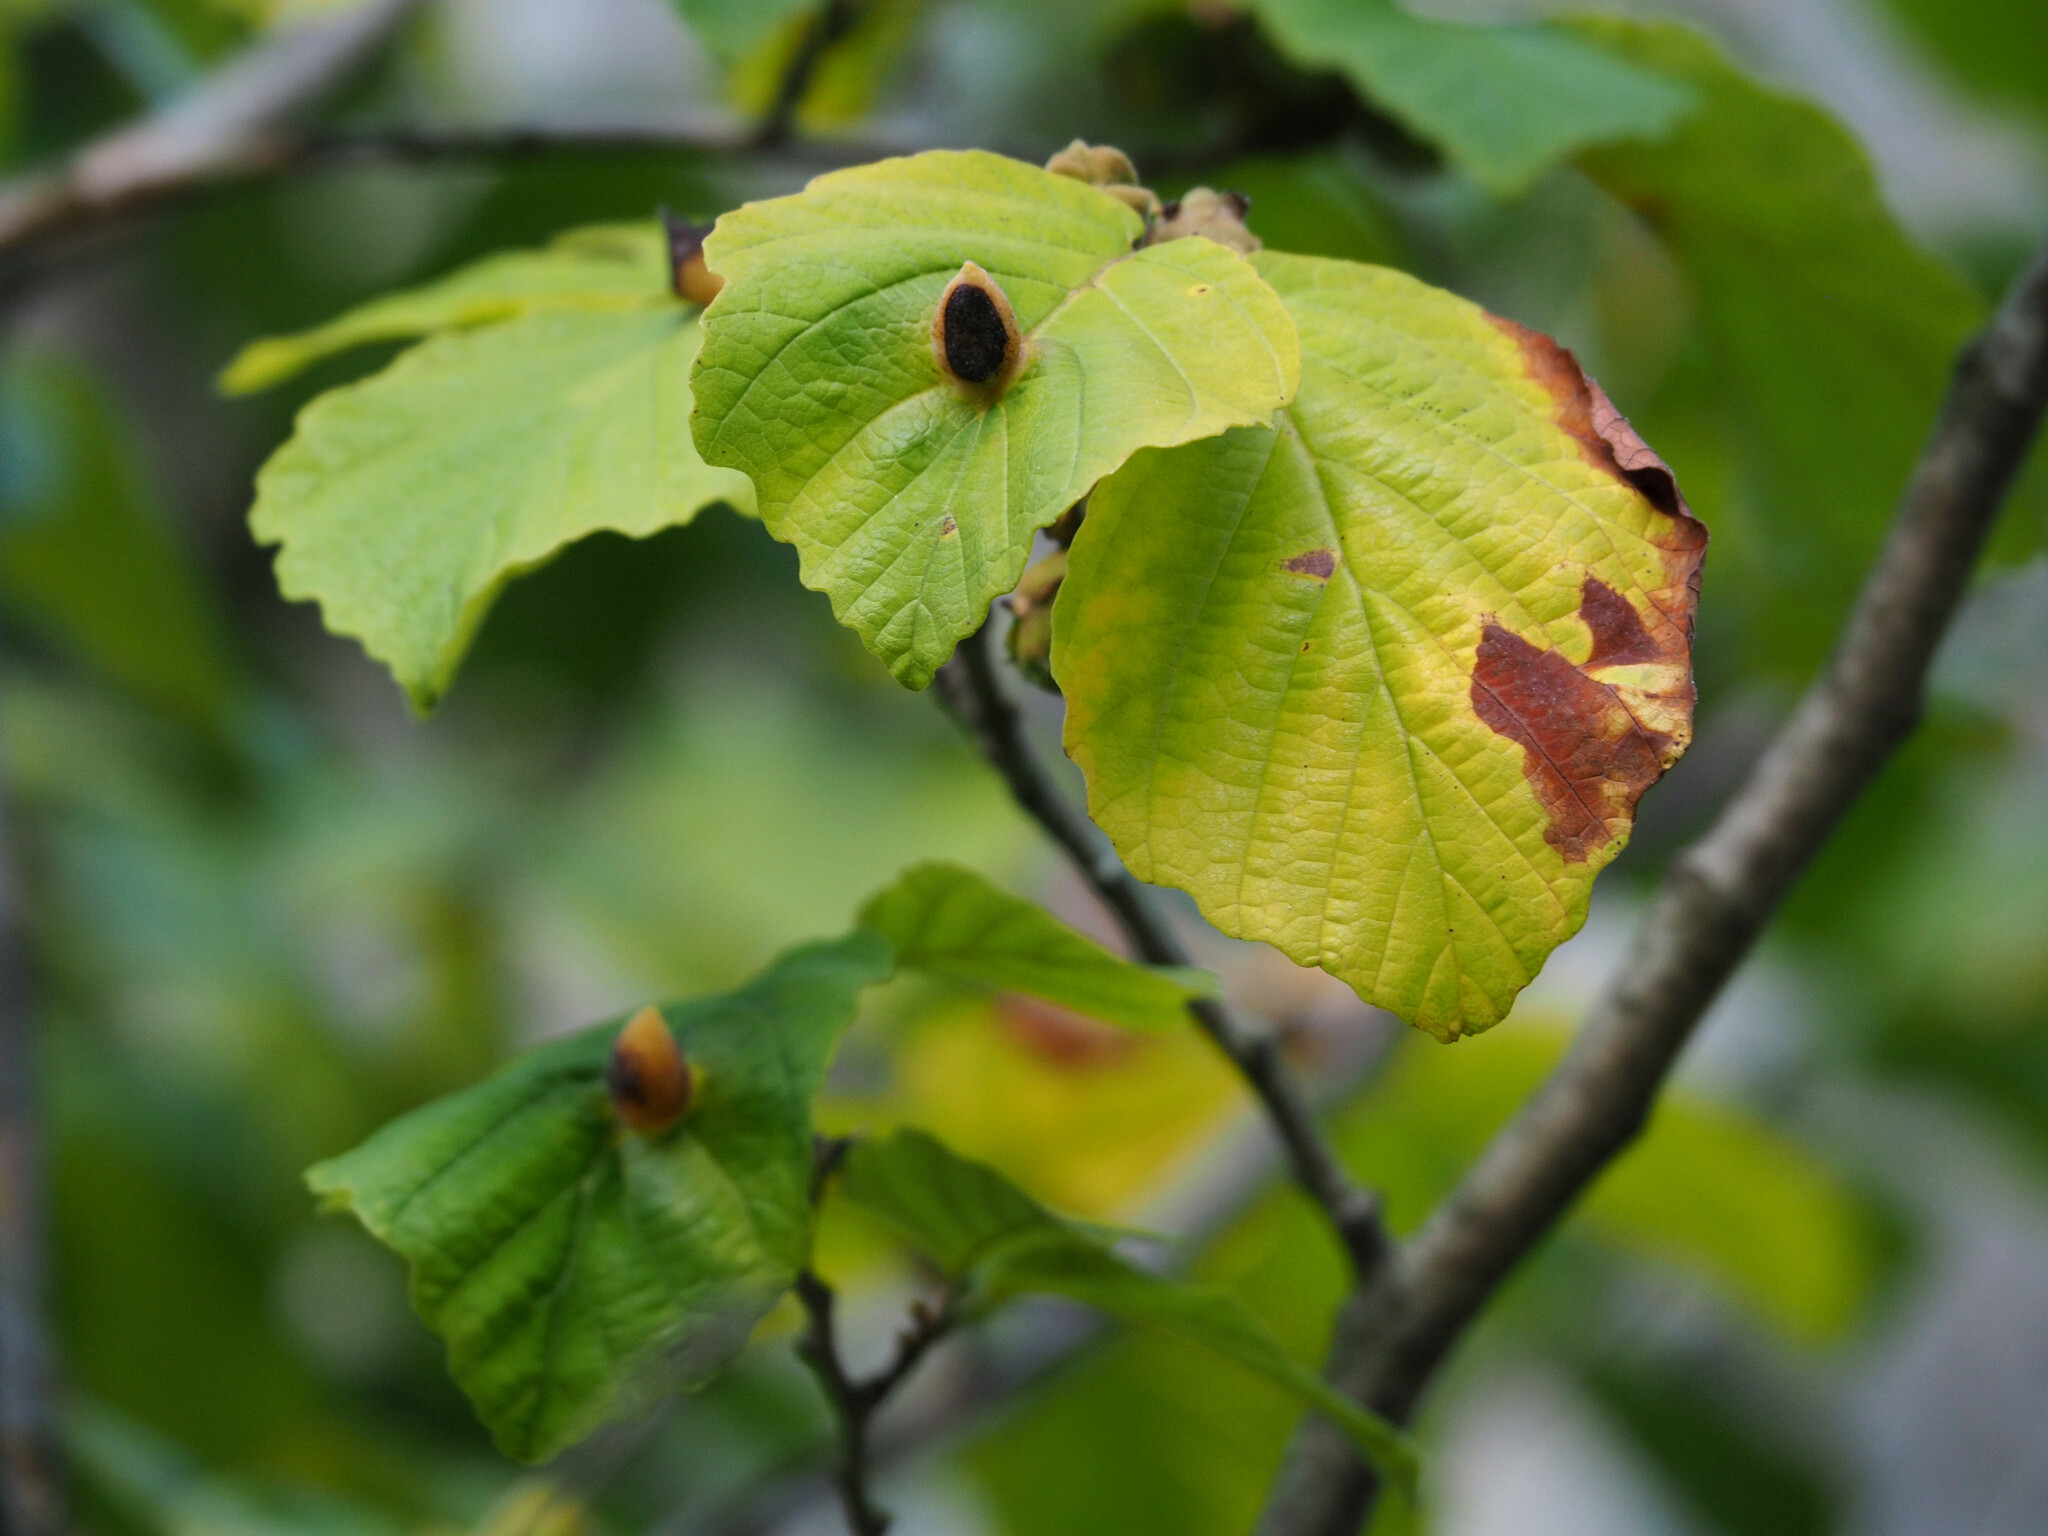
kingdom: Animalia
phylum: Arthropoda
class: Insecta
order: Hemiptera
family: Aphididae
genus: Hormaphis
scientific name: Hormaphis hamamelidis
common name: Witch-hazel cone gall aphid
